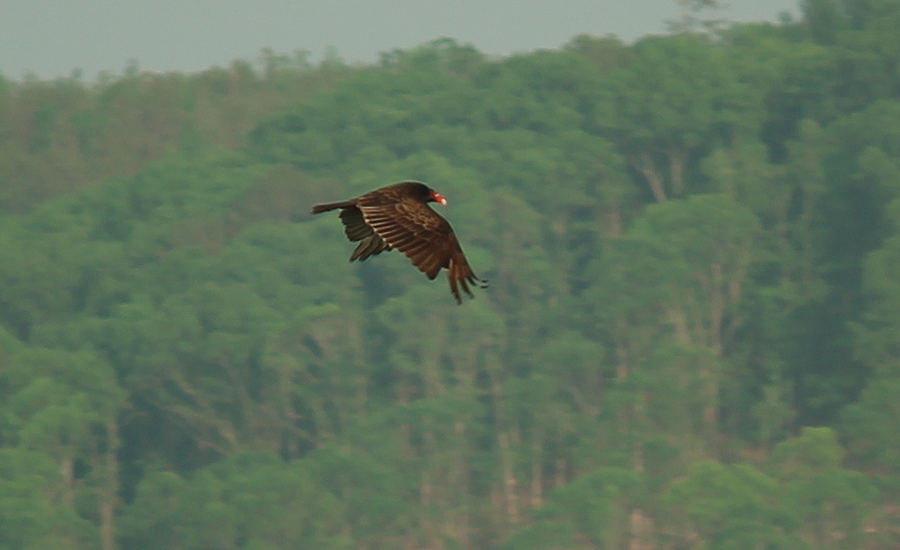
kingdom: Animalia
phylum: Chordata
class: Aves
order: Accipitriformes
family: Cathartidae
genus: Cathartes
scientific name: Cathartes aura
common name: Turkey vulture
